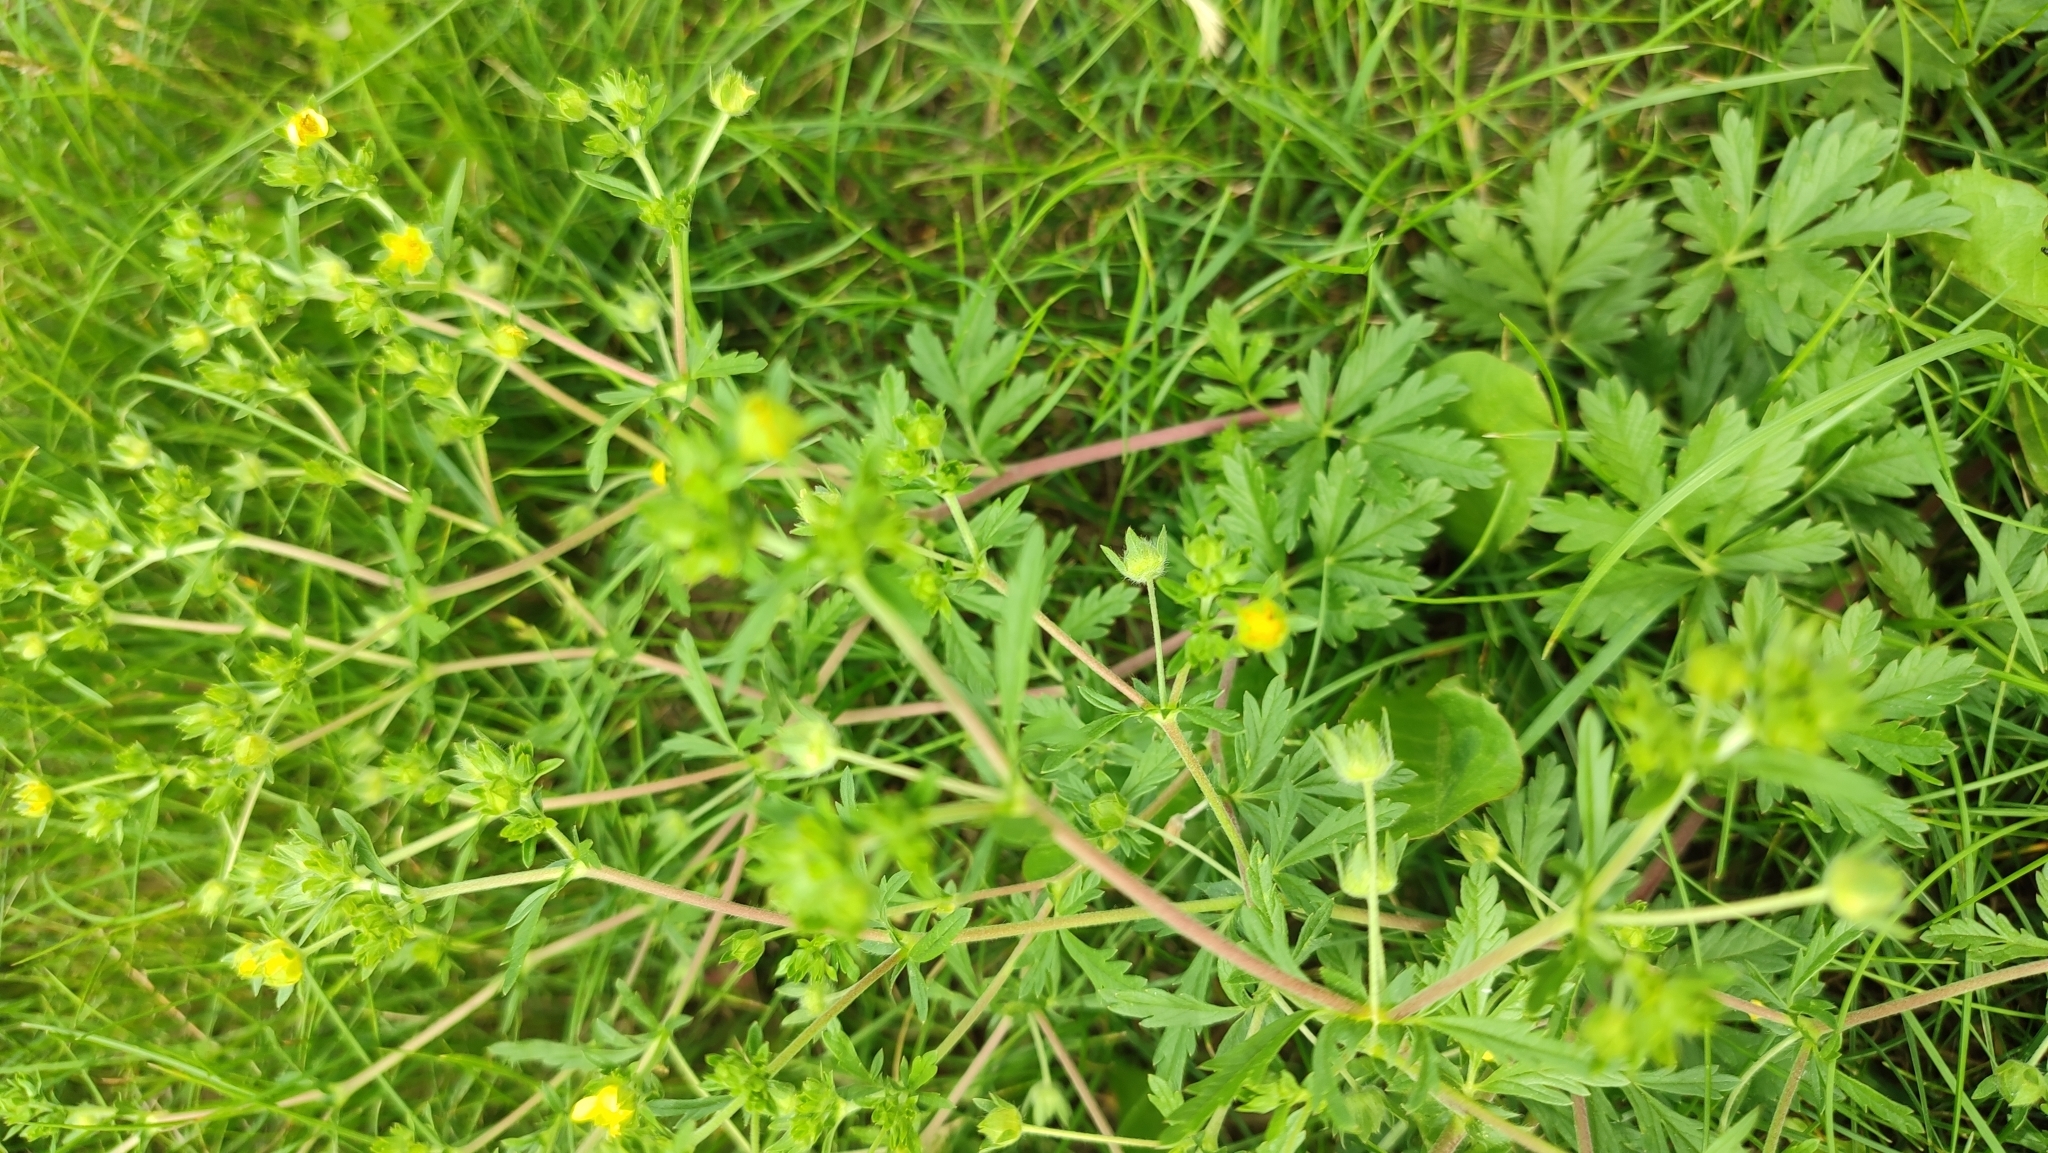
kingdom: Plantae
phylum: Tracheophyta
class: Magnoliopsida
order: Rosales
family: Rosaceae
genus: Potentilla
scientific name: Potentilla tobolensis
